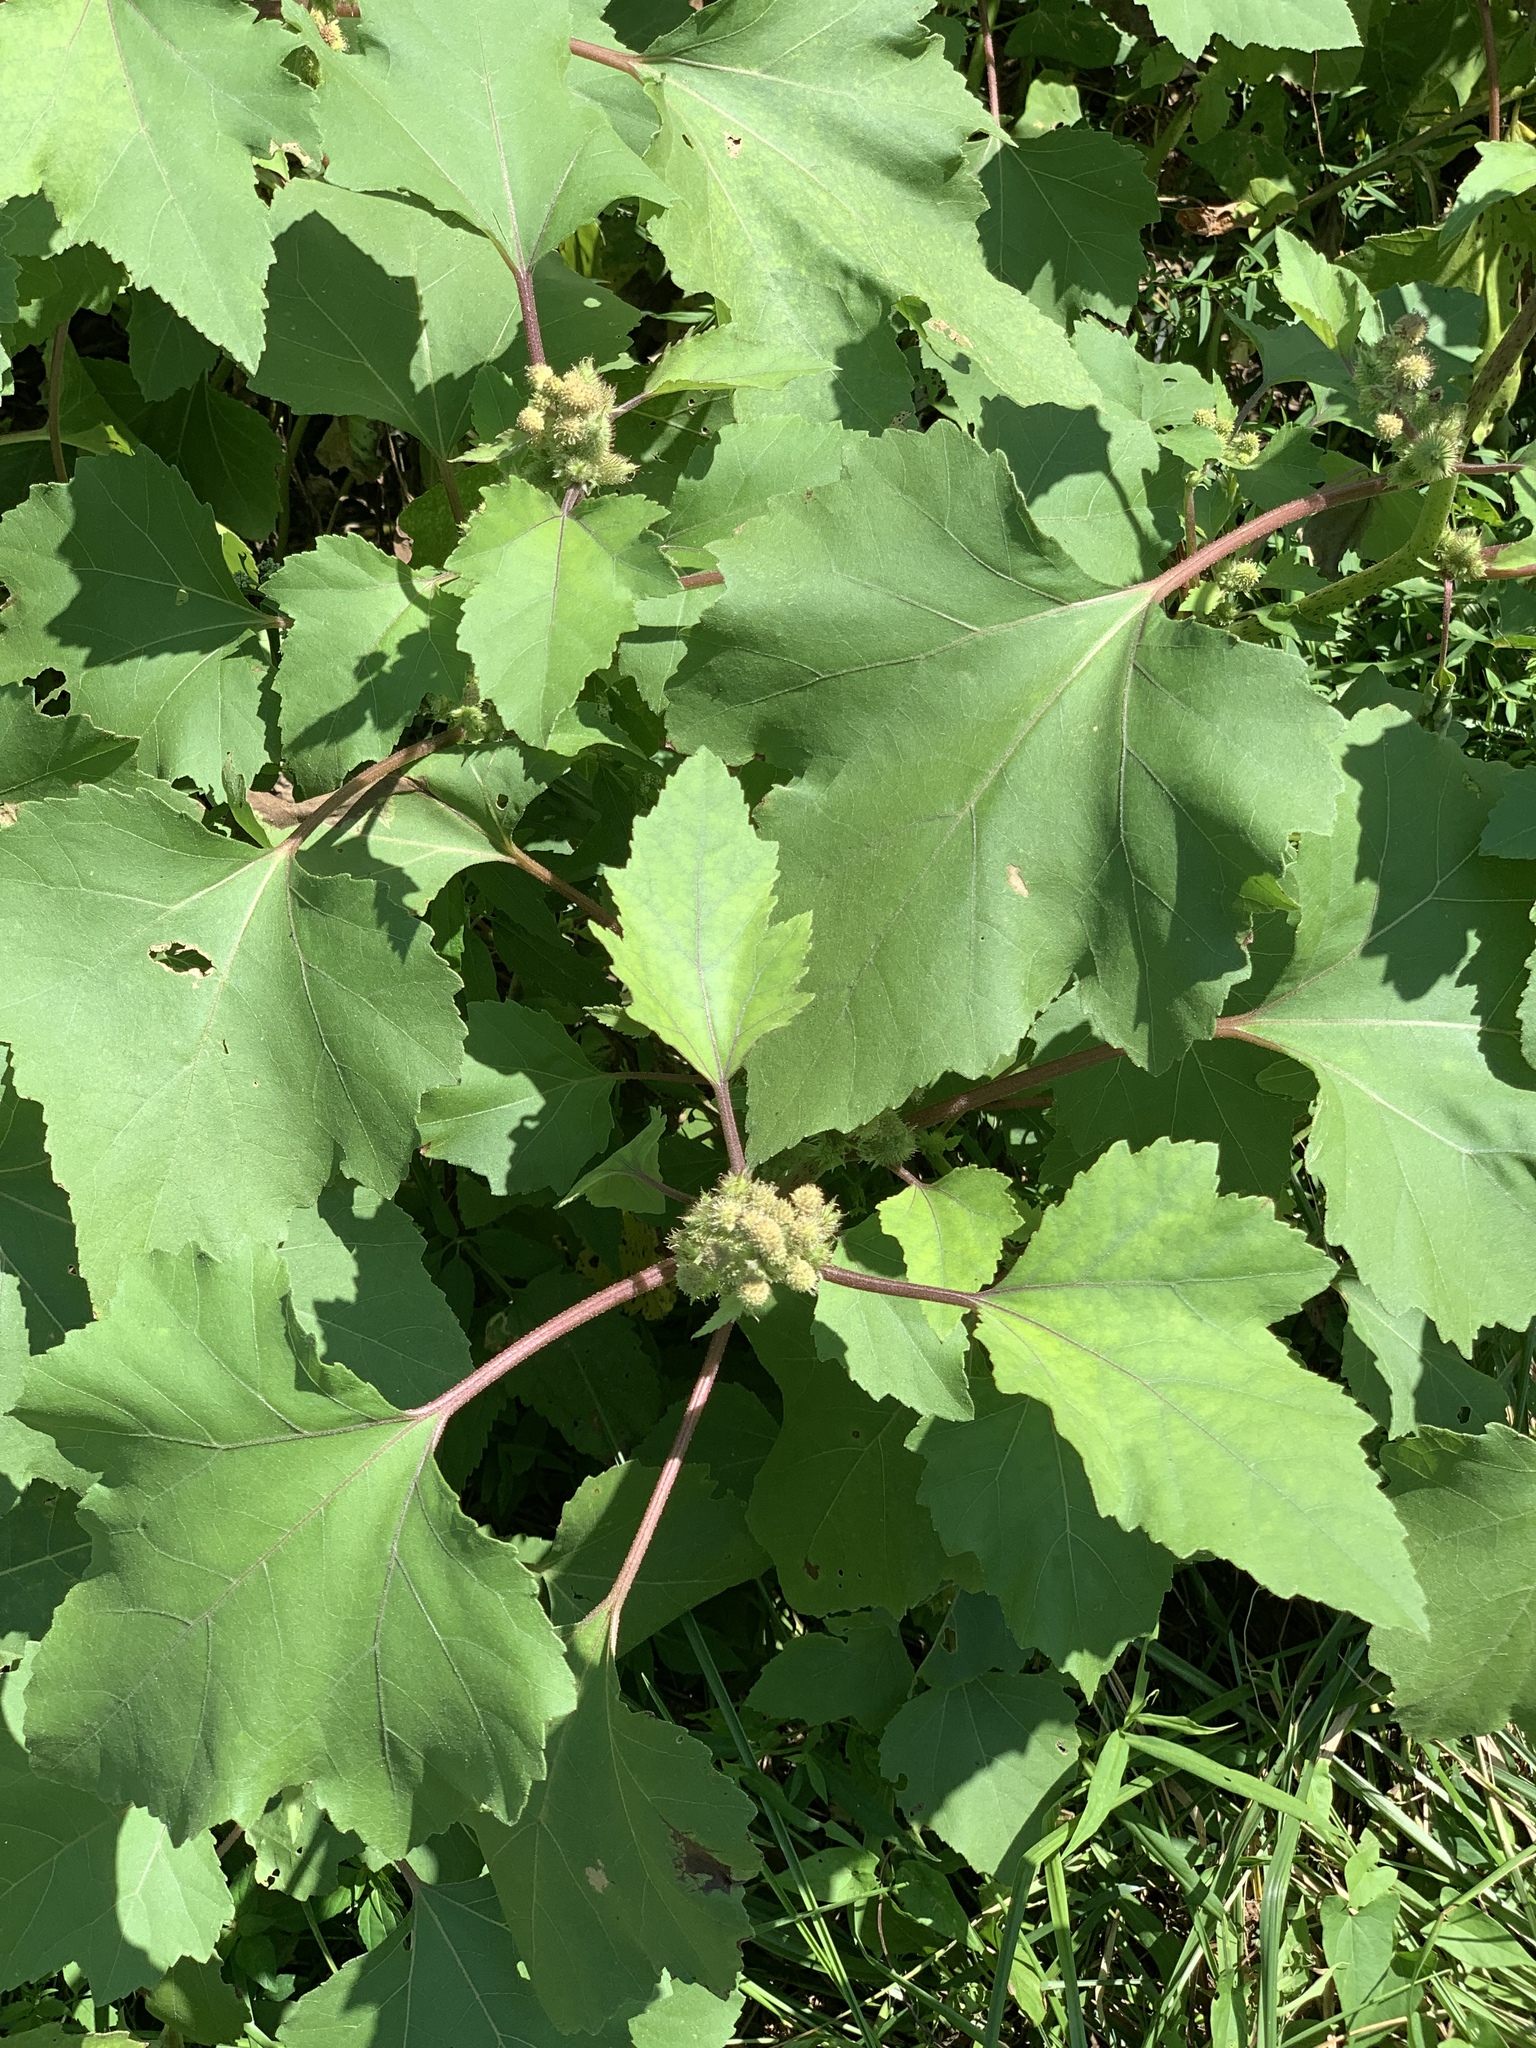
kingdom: Plantae
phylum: Tracheophyta
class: Magnoliopsida
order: Asterales
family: Asteraceae
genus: Xanthium
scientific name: Xanthium strumarium
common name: Rough cocklebur
